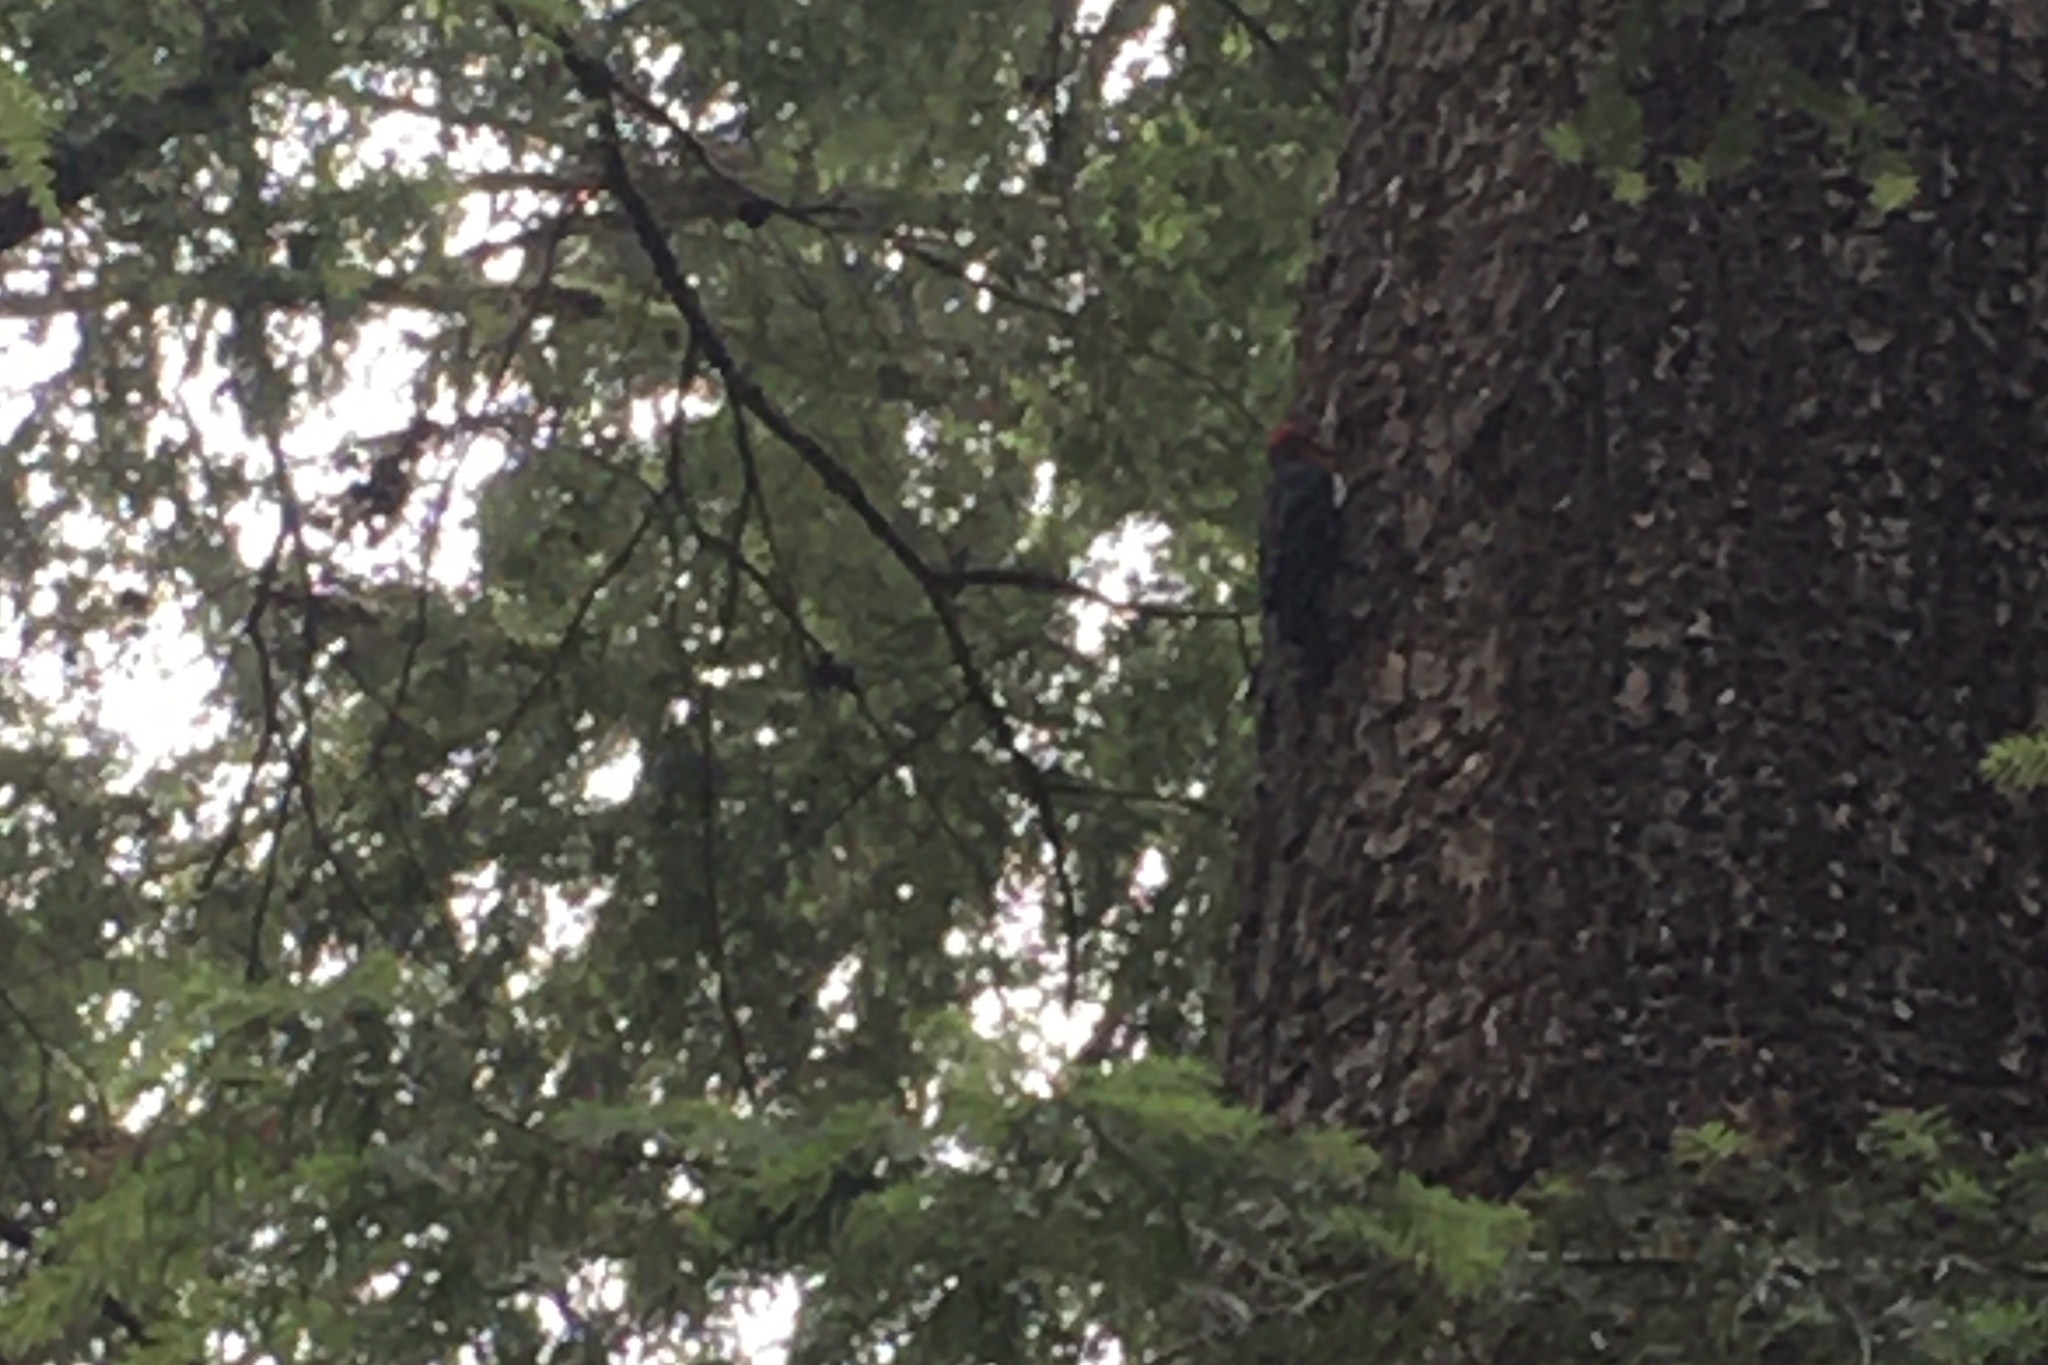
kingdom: Animalia
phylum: Chordata
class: Aves
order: Piciformes
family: Picidae
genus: Sphyrapicus
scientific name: Sphyrapicus ruber
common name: Red-breasted sapsucker
